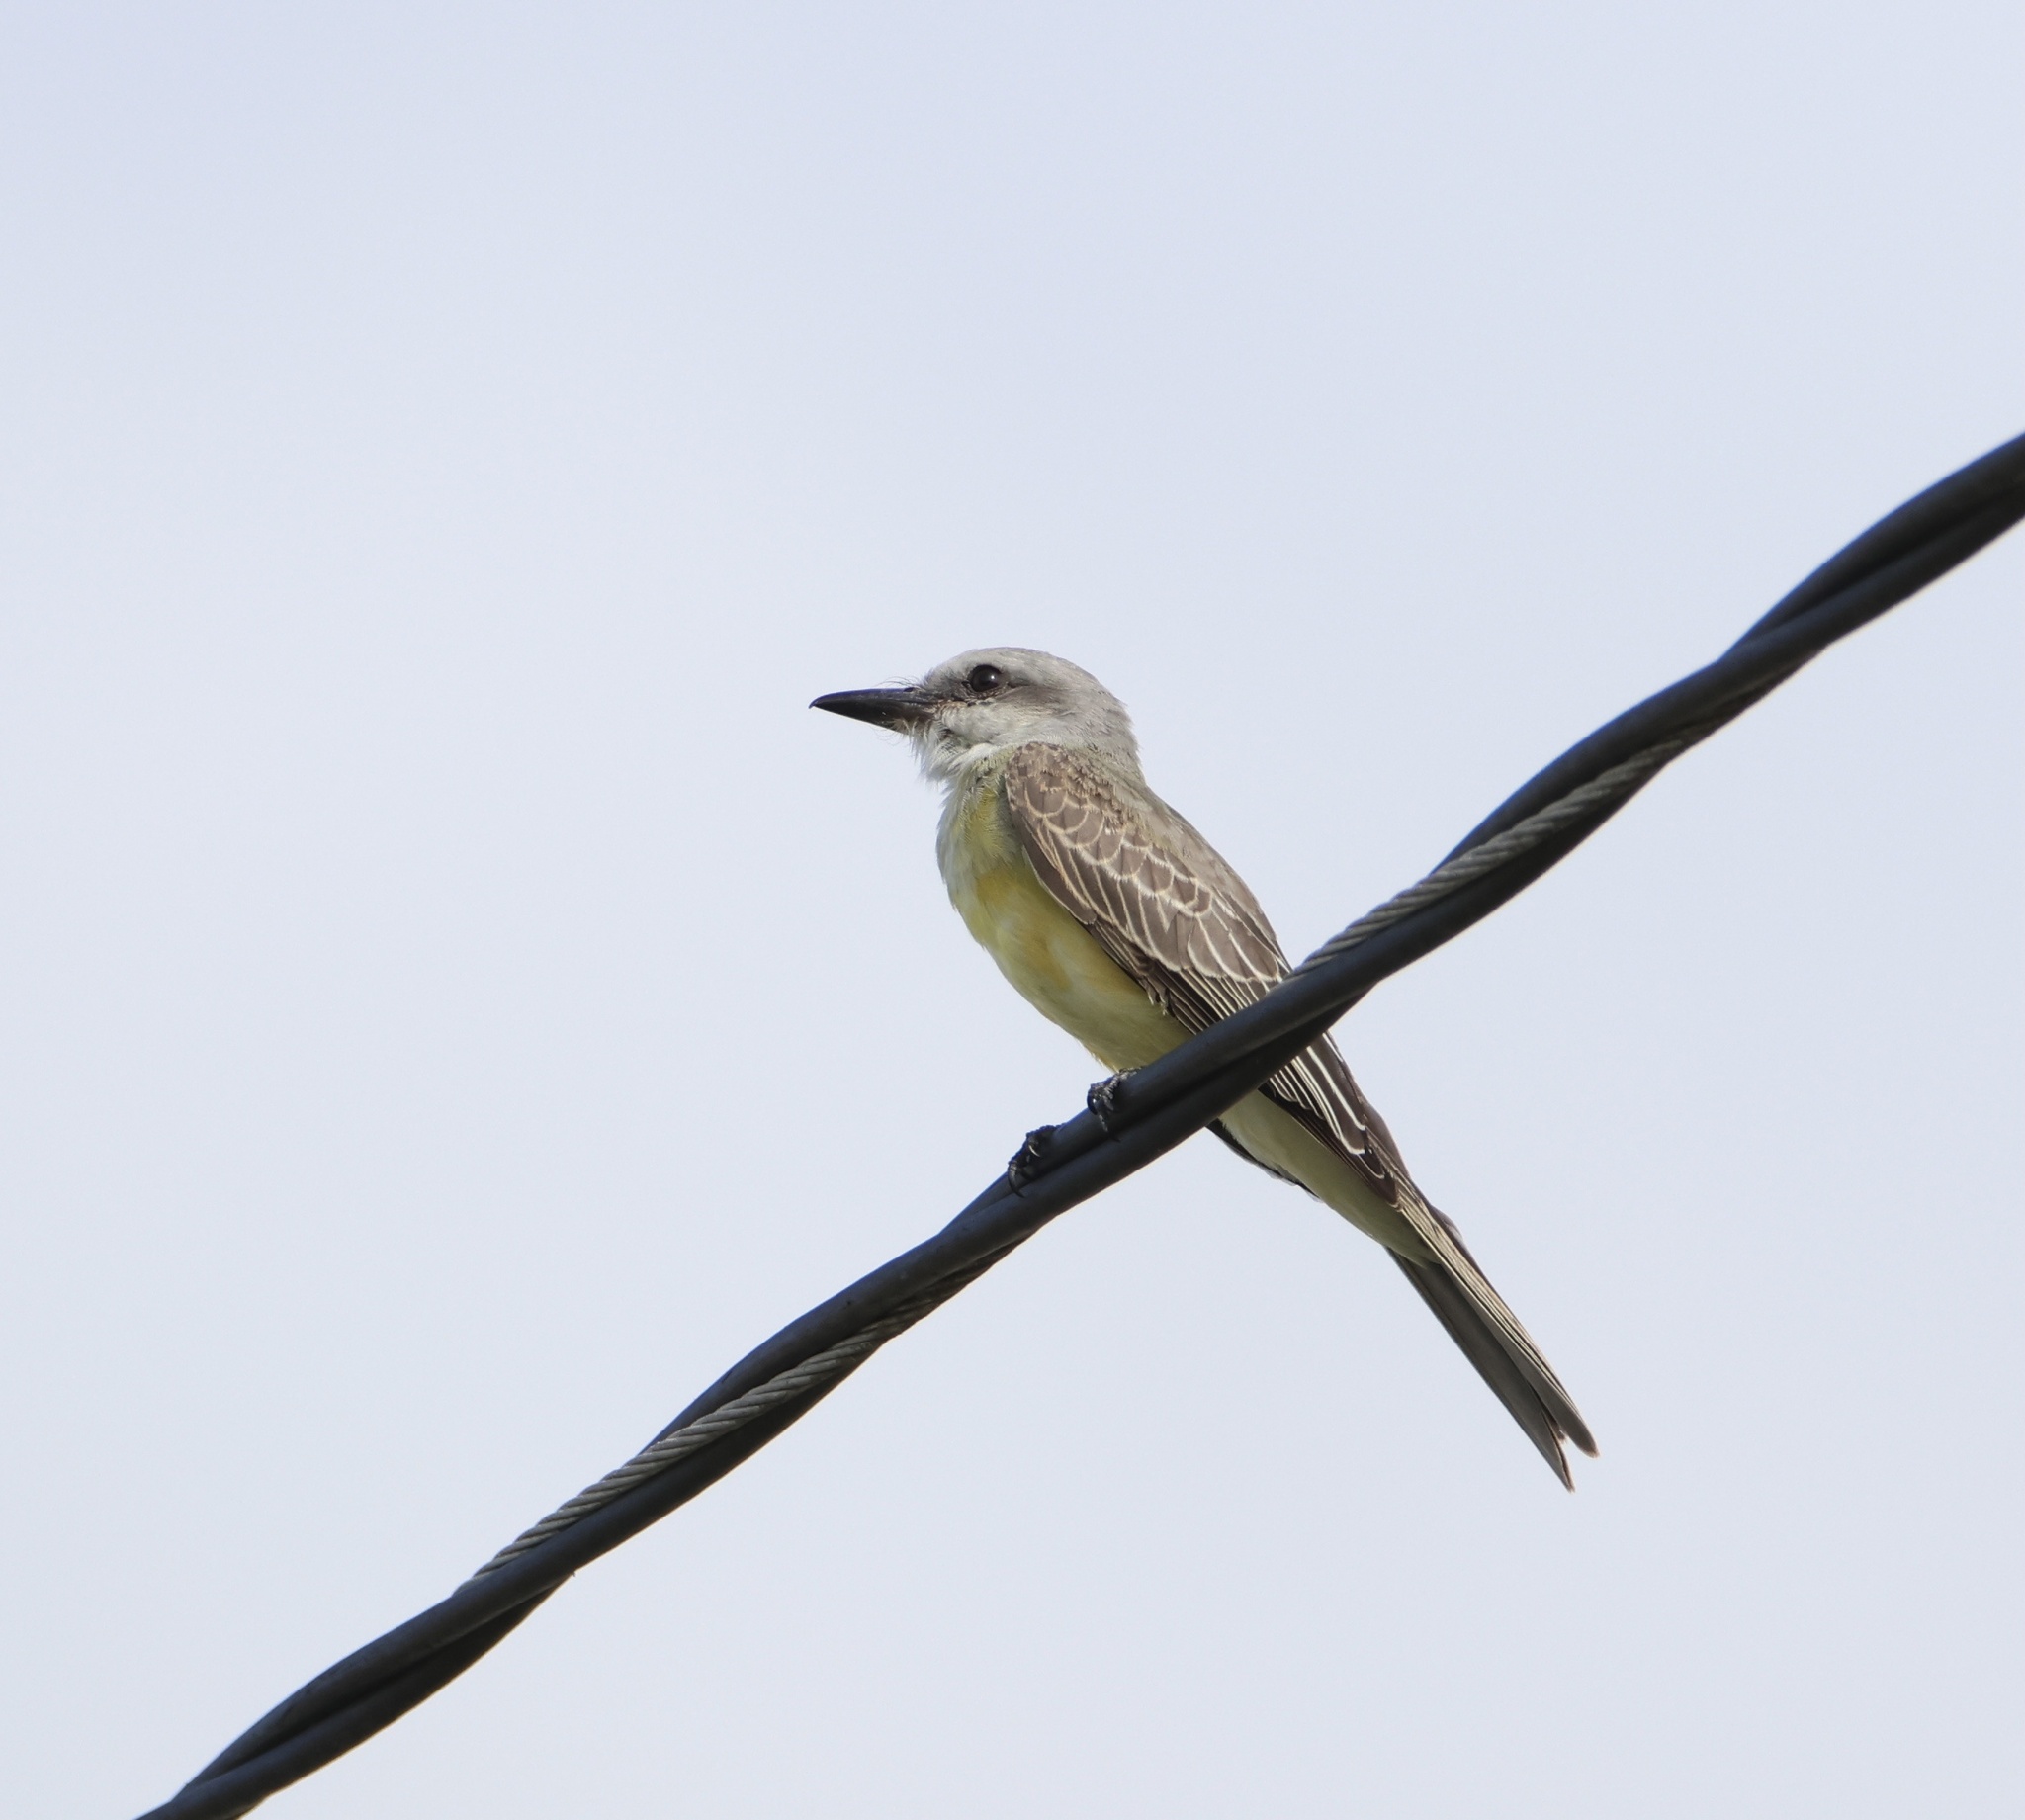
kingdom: Animalia
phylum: Chordata
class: Aves
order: Passeriformes
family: Tyrannidae
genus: Tyrannus
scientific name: Tyrannus melancholicus
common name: Tropical kingbird
